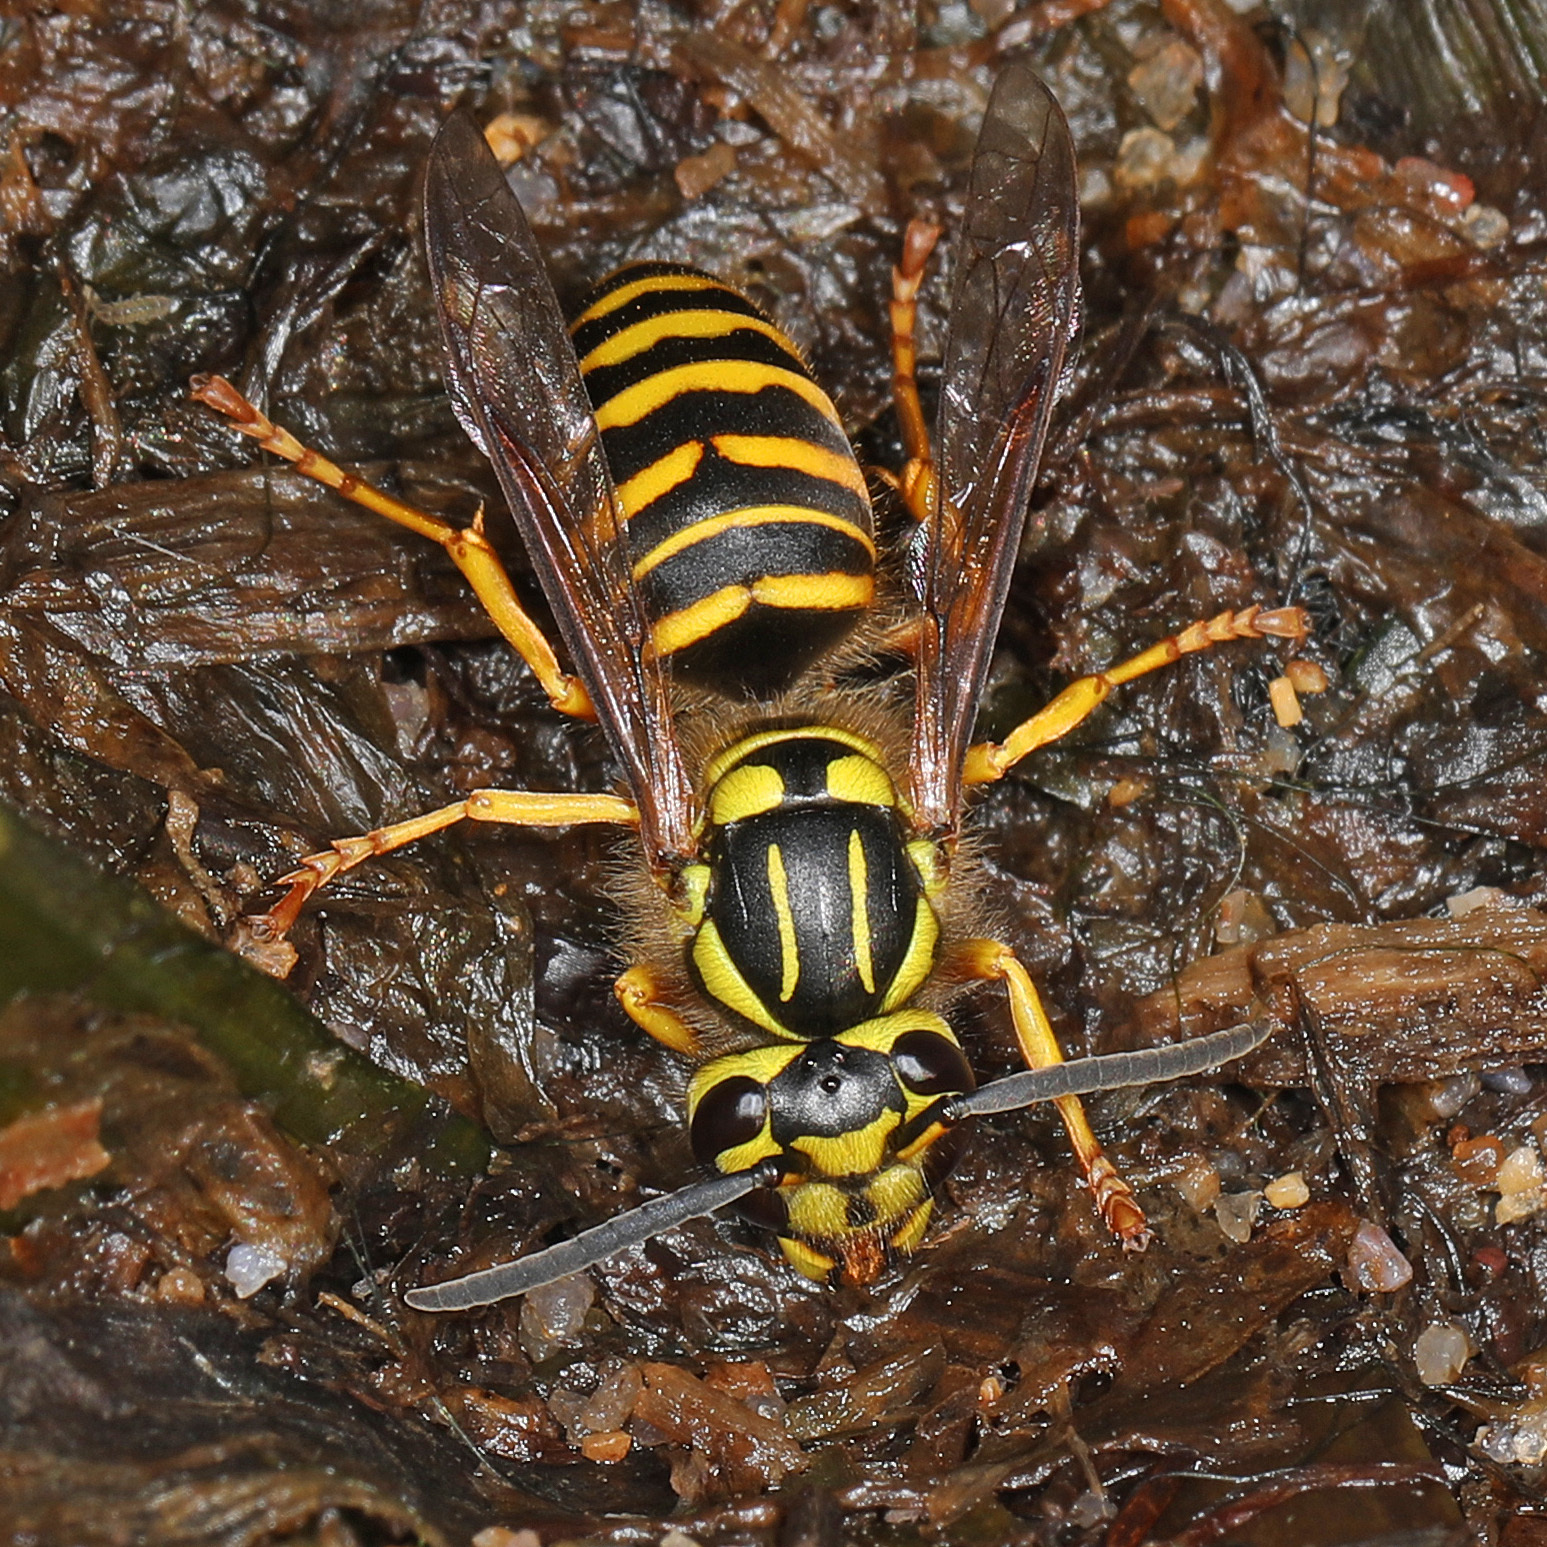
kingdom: Animalia
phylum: Arthropoda
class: Insecta
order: Hymenoptera
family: Vespidae
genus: Vespula
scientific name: Vespula squamosa
